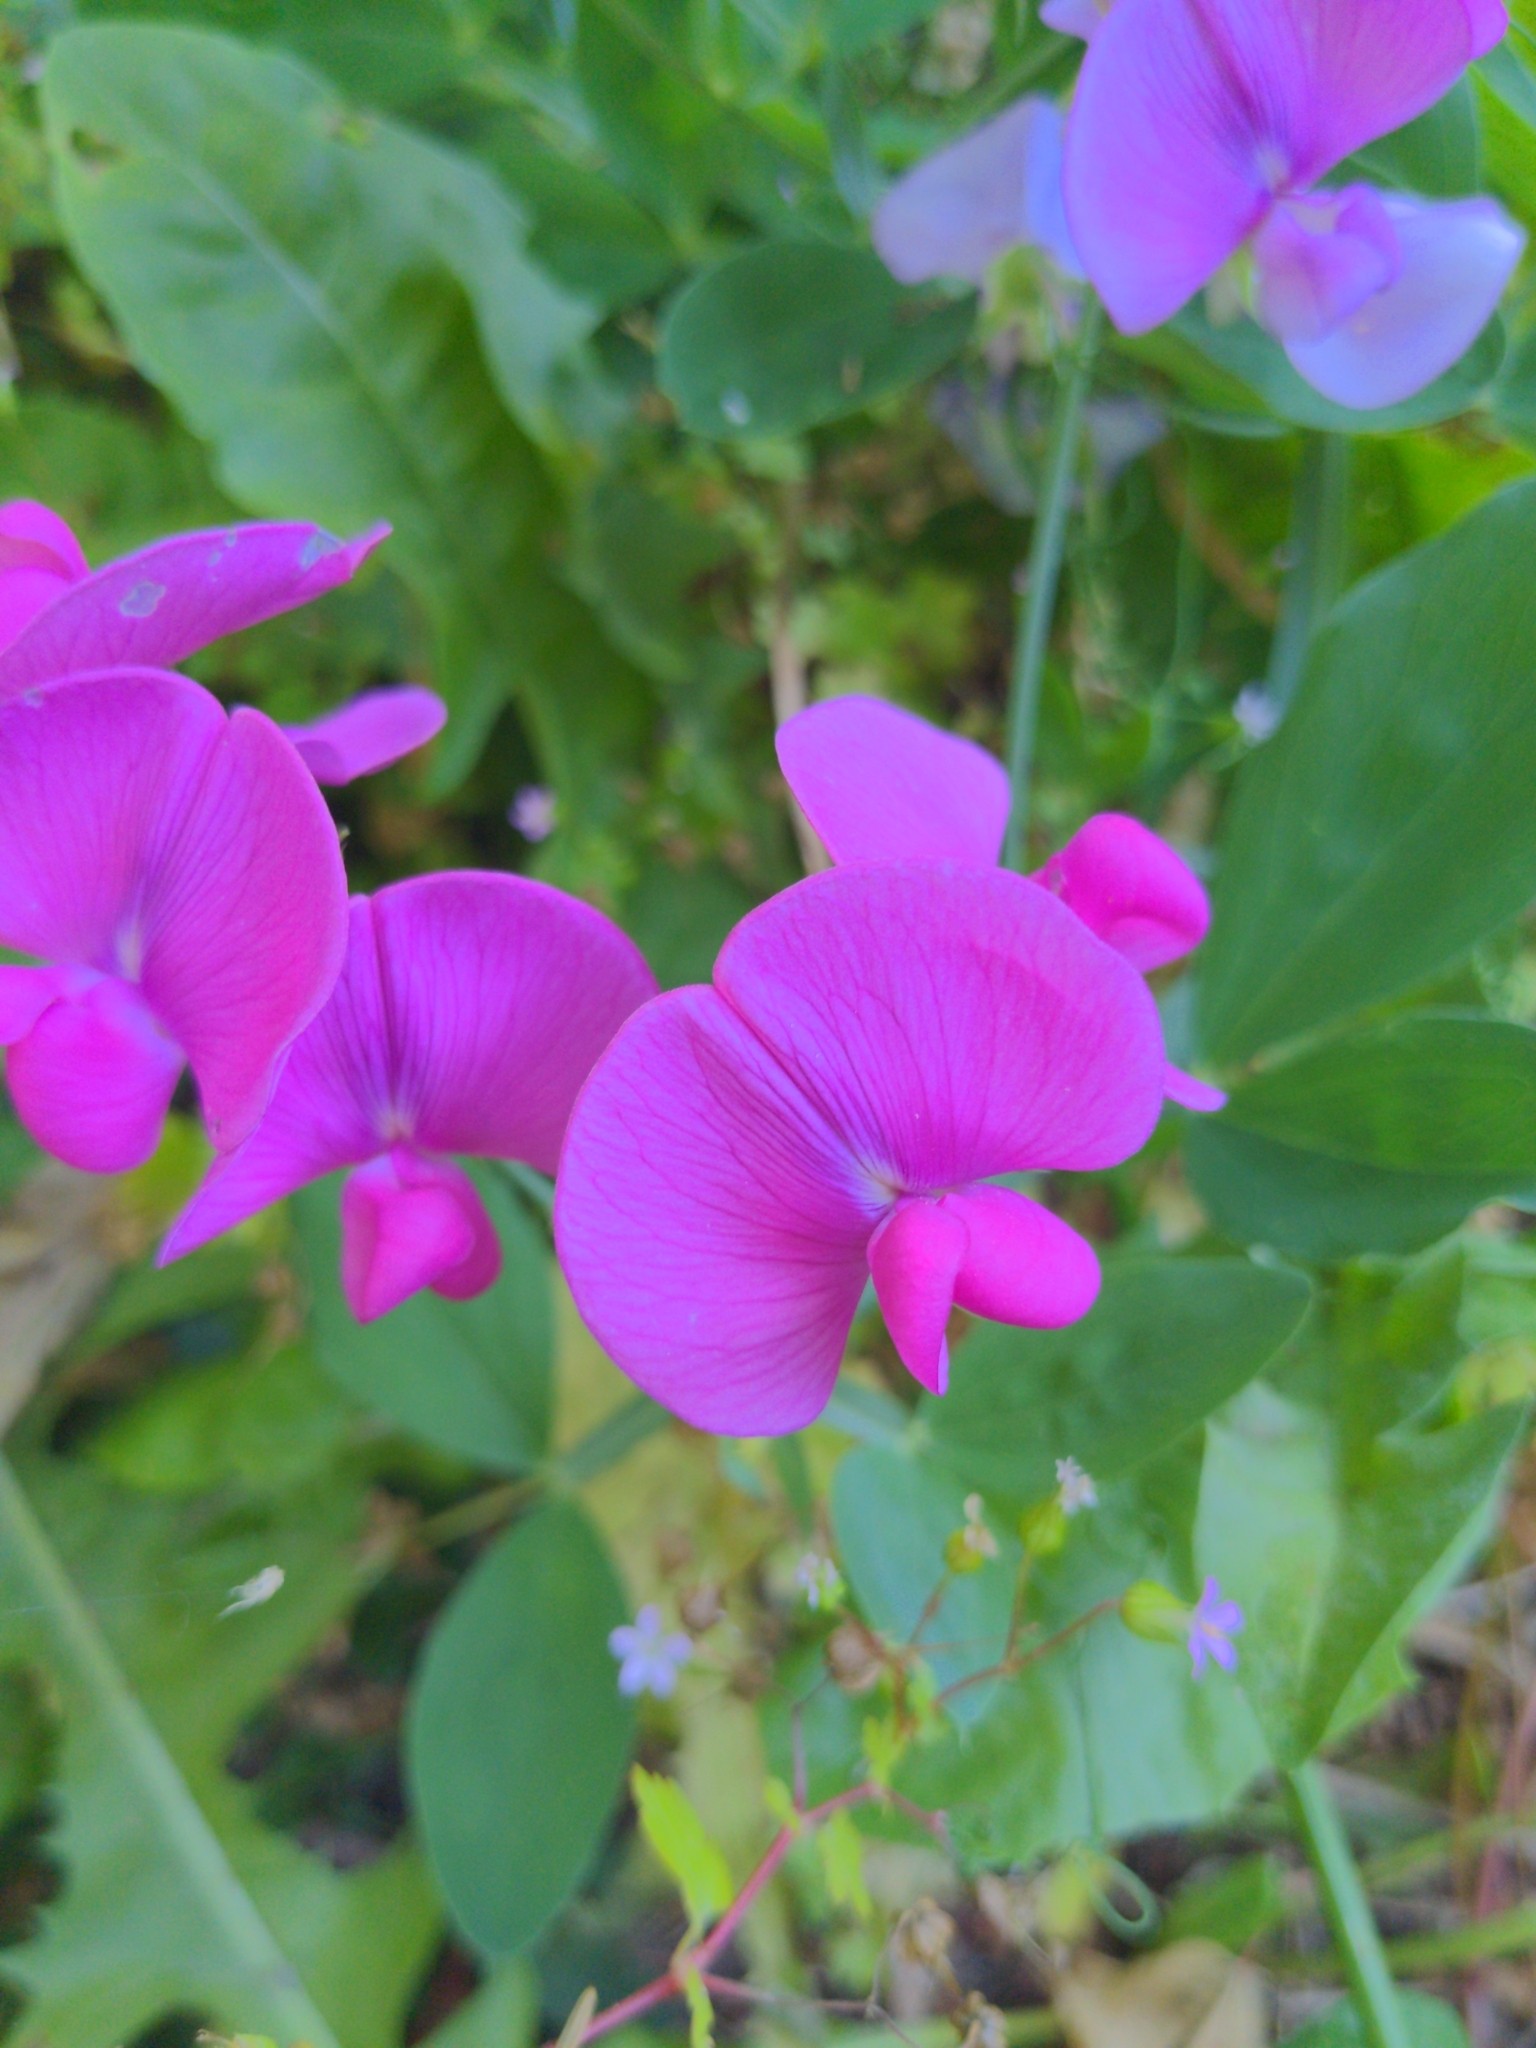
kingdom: Plantae
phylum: Tracheophyta
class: Magnoliopsida
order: Fabales
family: Fabaceae
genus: Lathyrus
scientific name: Lathyrus latifolius
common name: Perennial pea
